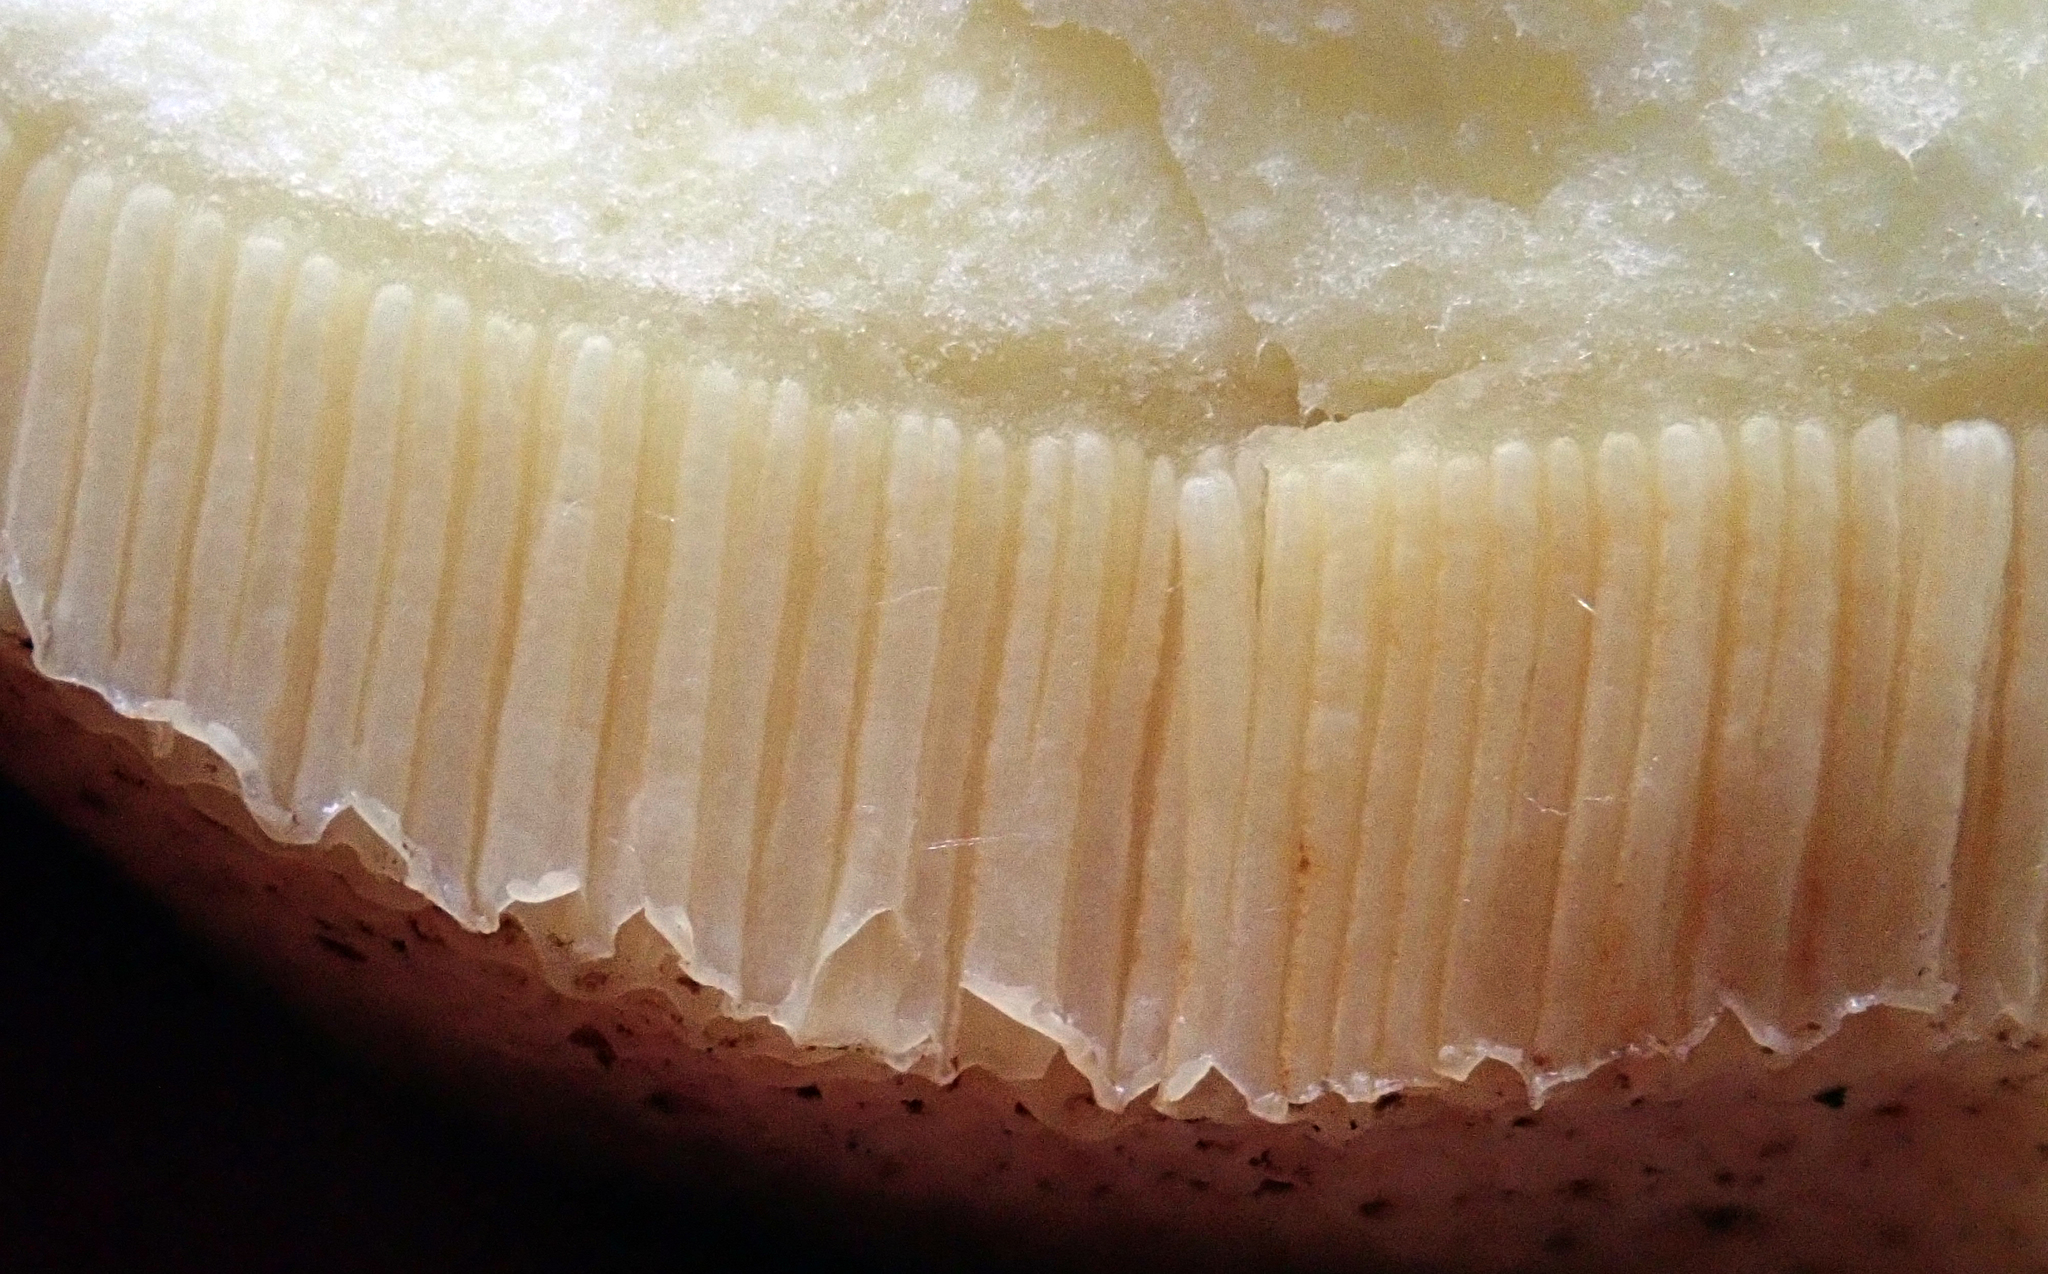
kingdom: Fungi
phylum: Basidiomycota
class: Agaricomycetes
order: Boletales
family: Suillaceae
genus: Suillus
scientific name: Suillus granulatus
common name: Weeping bolete
